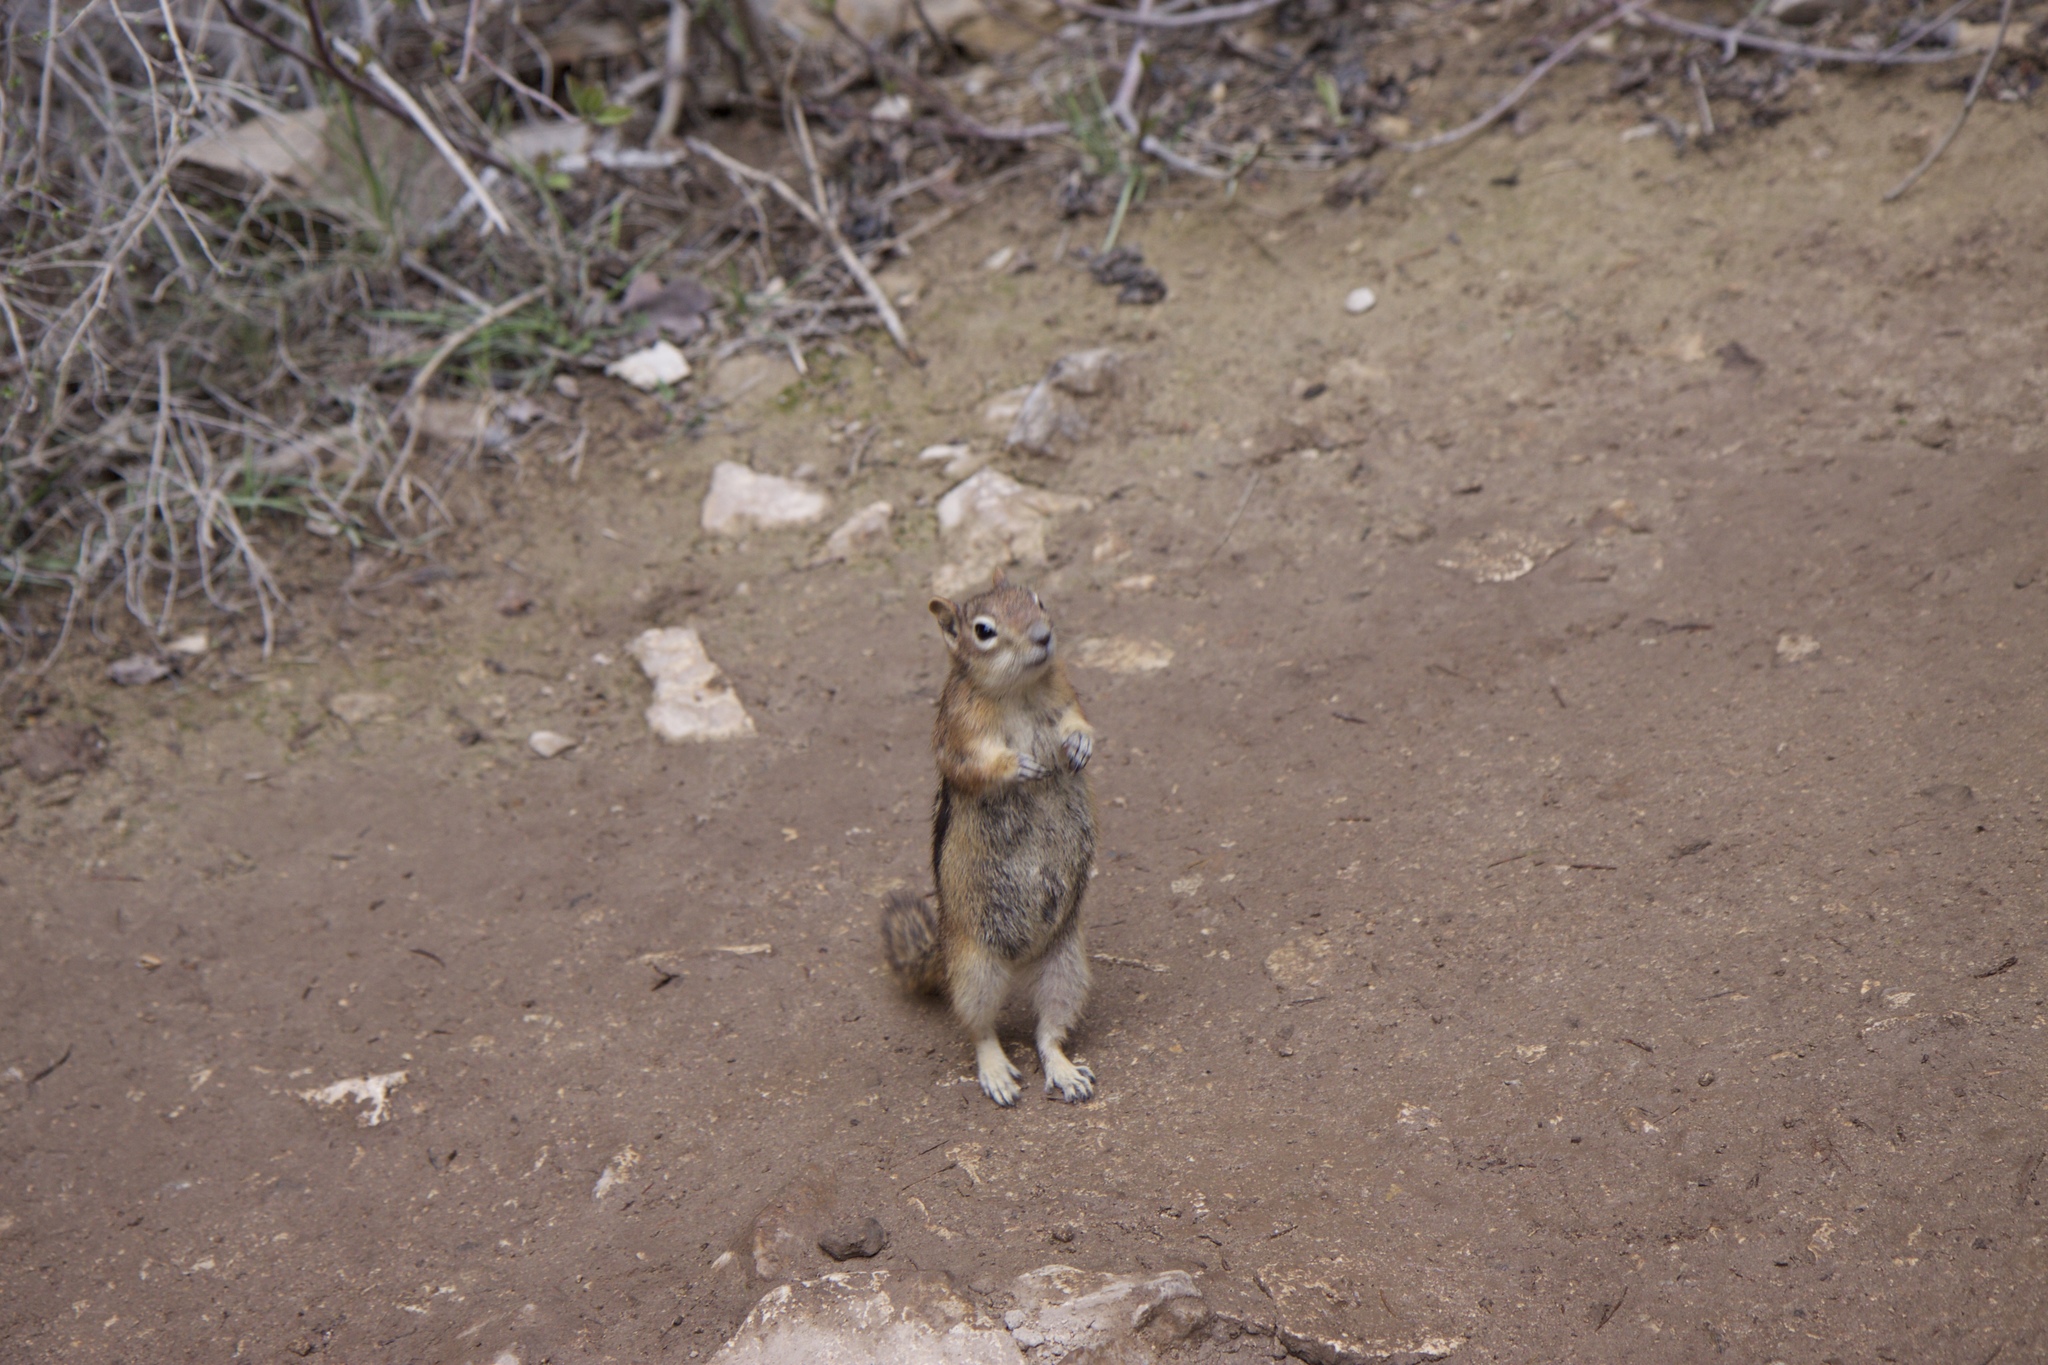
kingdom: Animalia
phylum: Chordata
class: Mammalia
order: Rodentia
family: Sciuridae
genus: Callospermophilus
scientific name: Callospermophilus lateralis
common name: Golden-mantled ground squirrel
